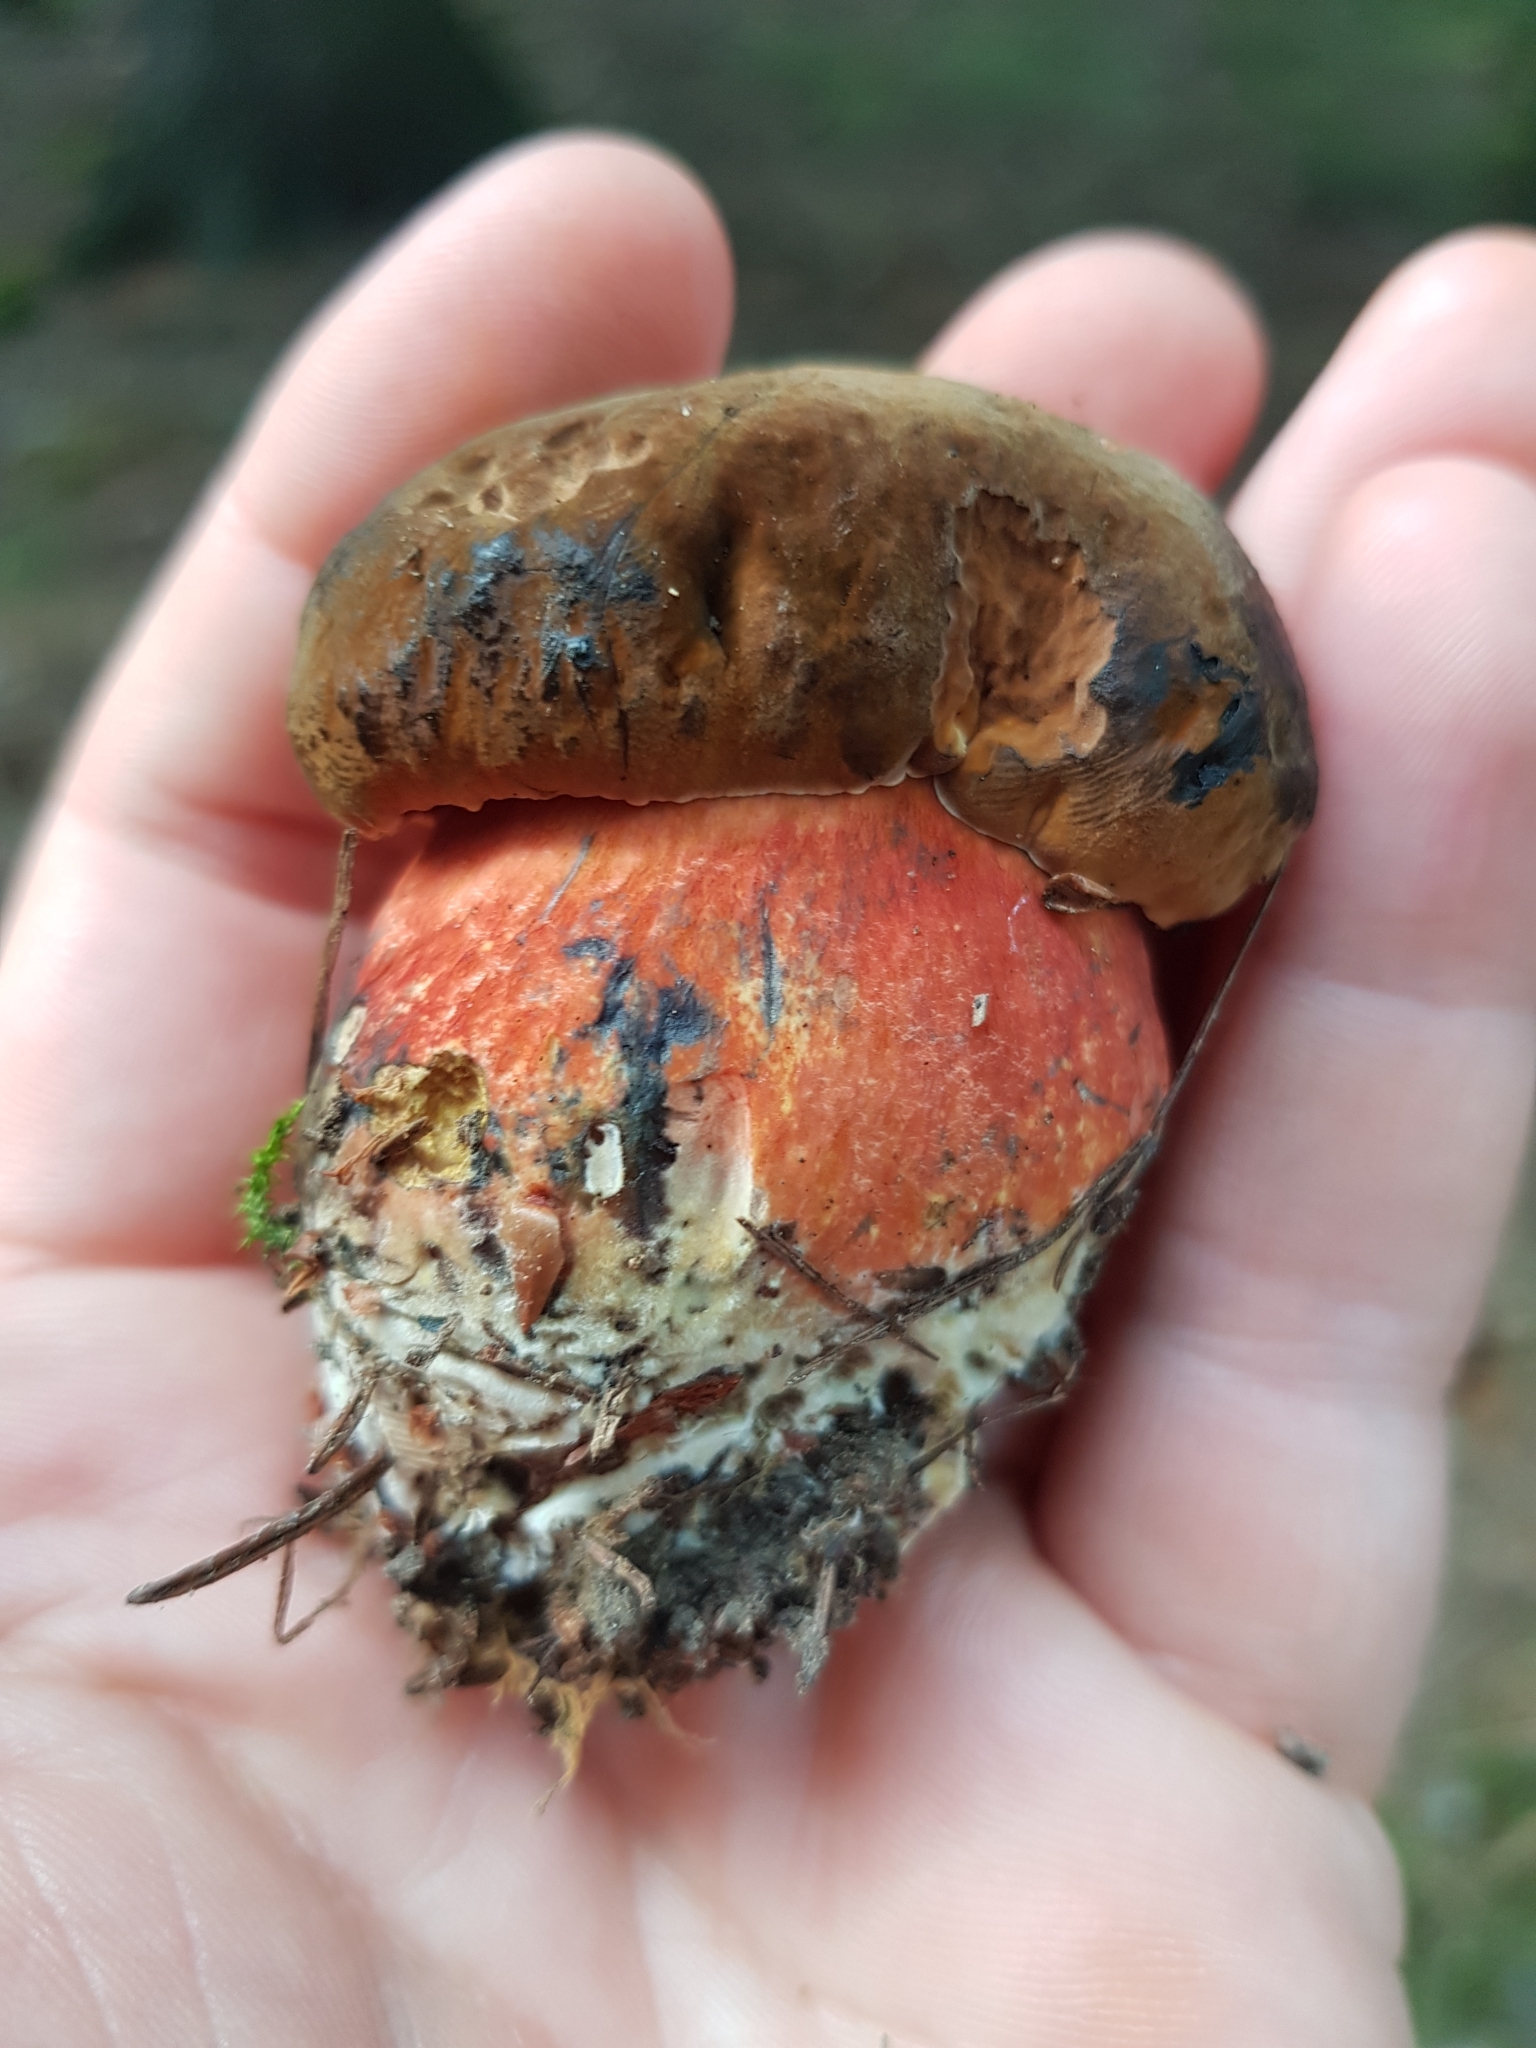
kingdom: Fungi
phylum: Basidiomycota
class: Agaricomycetes
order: Boletales
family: Boletaceae
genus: Neoboletus
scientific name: Neoboletus luridiformis
